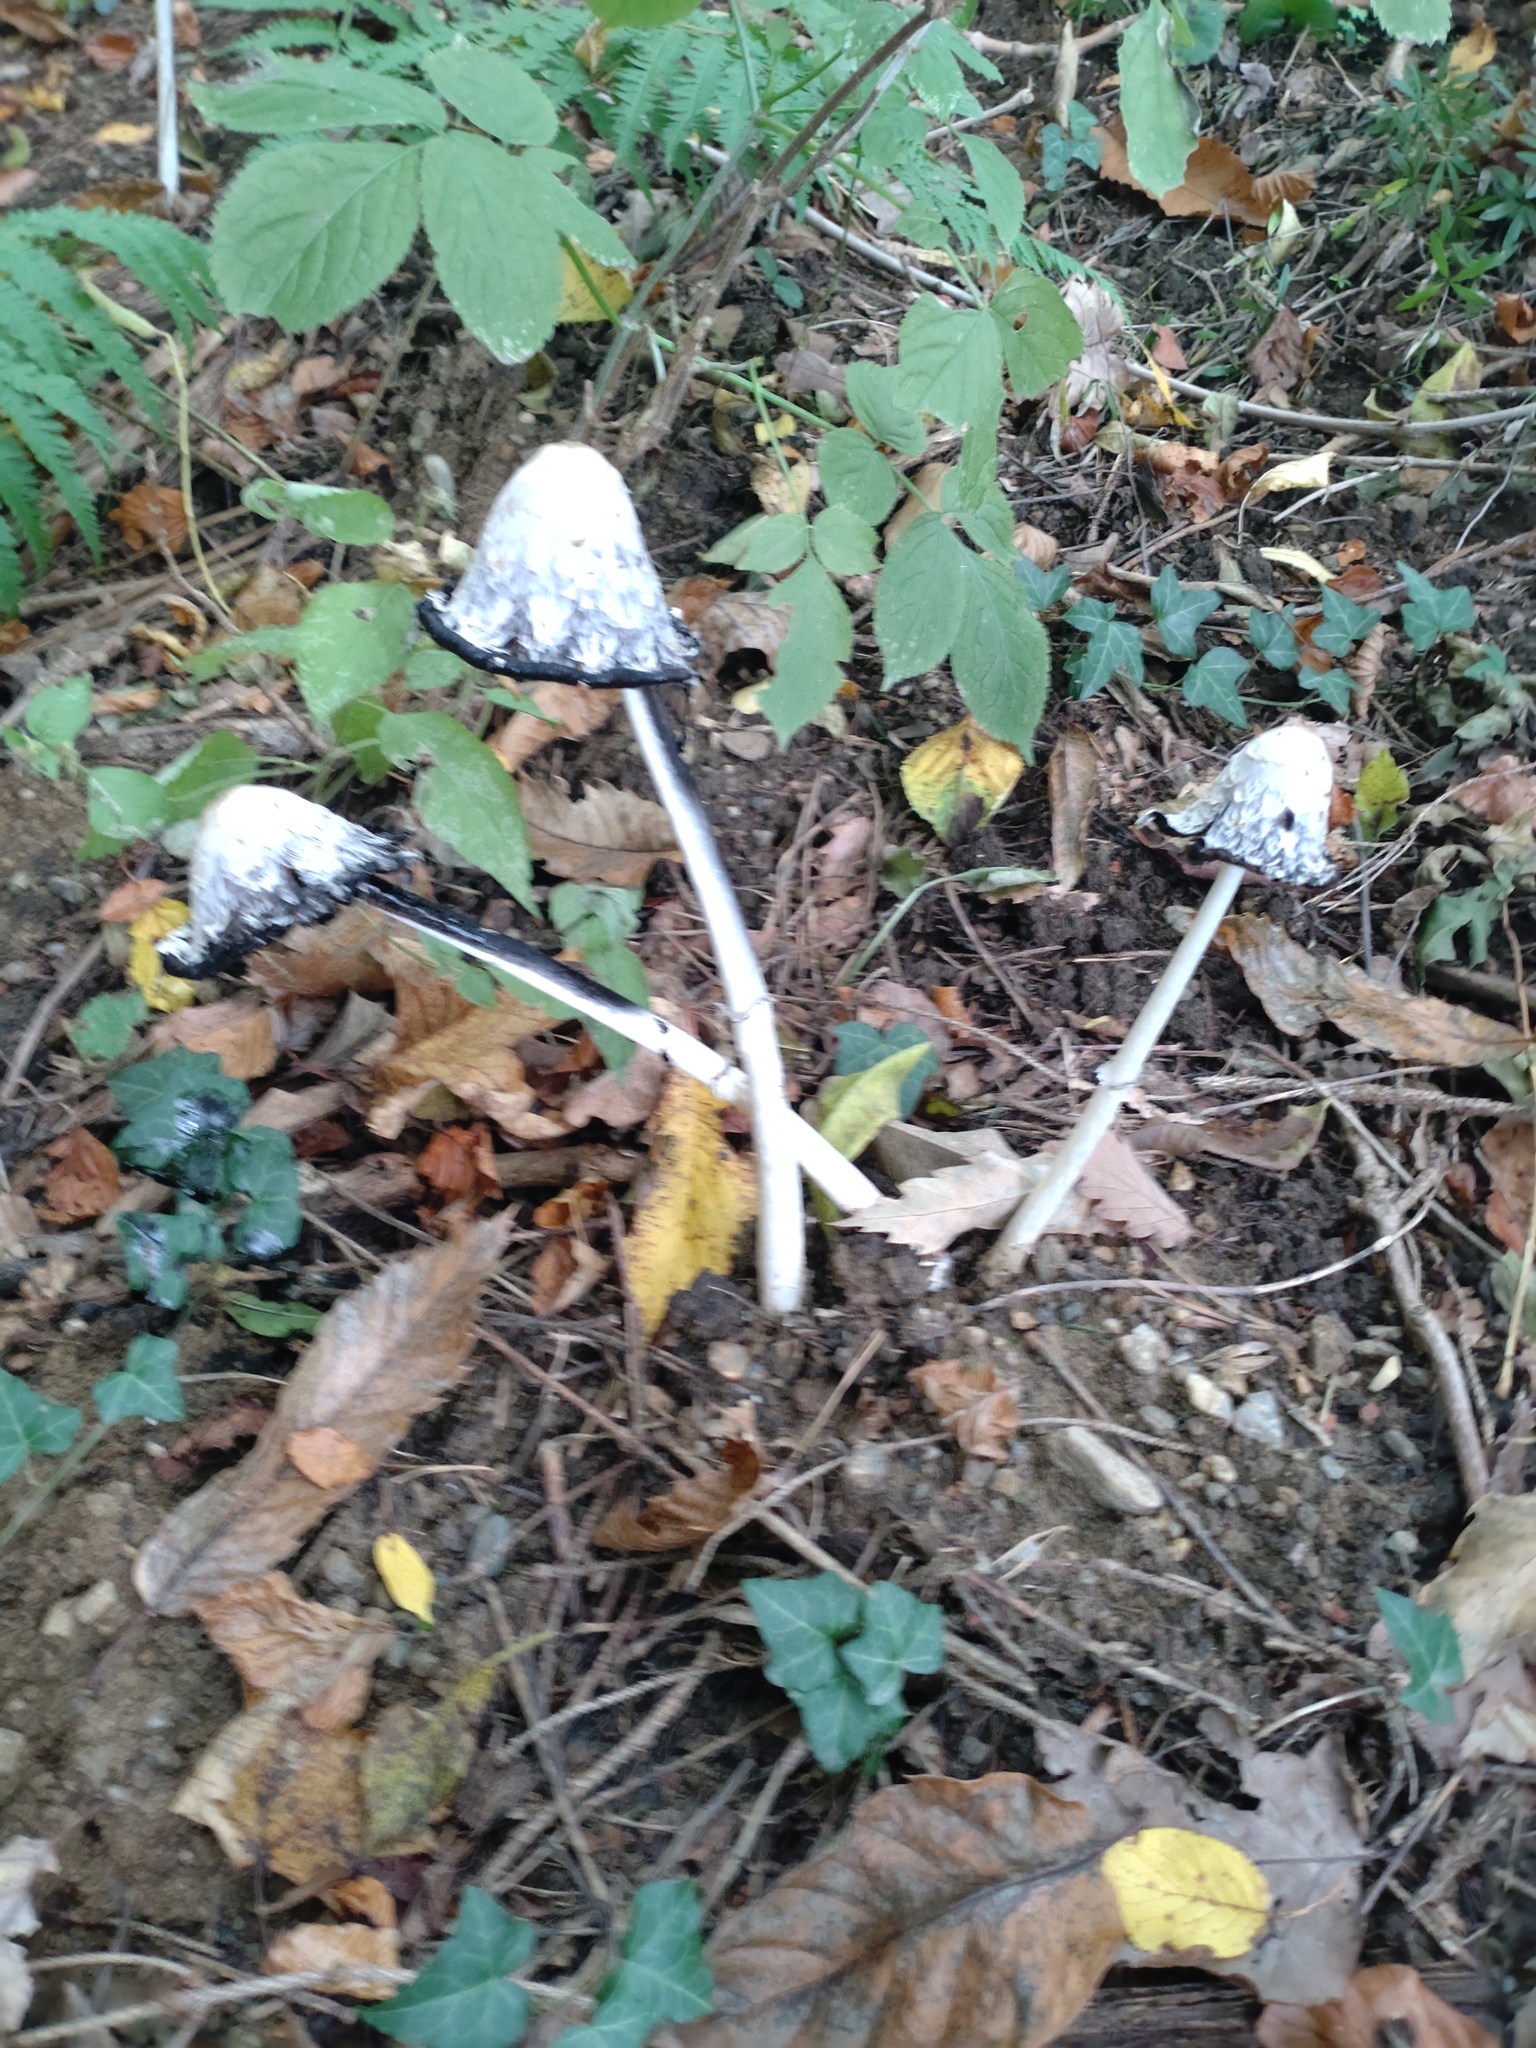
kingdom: Fungi
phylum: Basidiomycota
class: Agaricomycetes
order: Agaricales
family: Agaricaceae
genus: Coprinus
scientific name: Coprinus comatus
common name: Lawyer's wig
